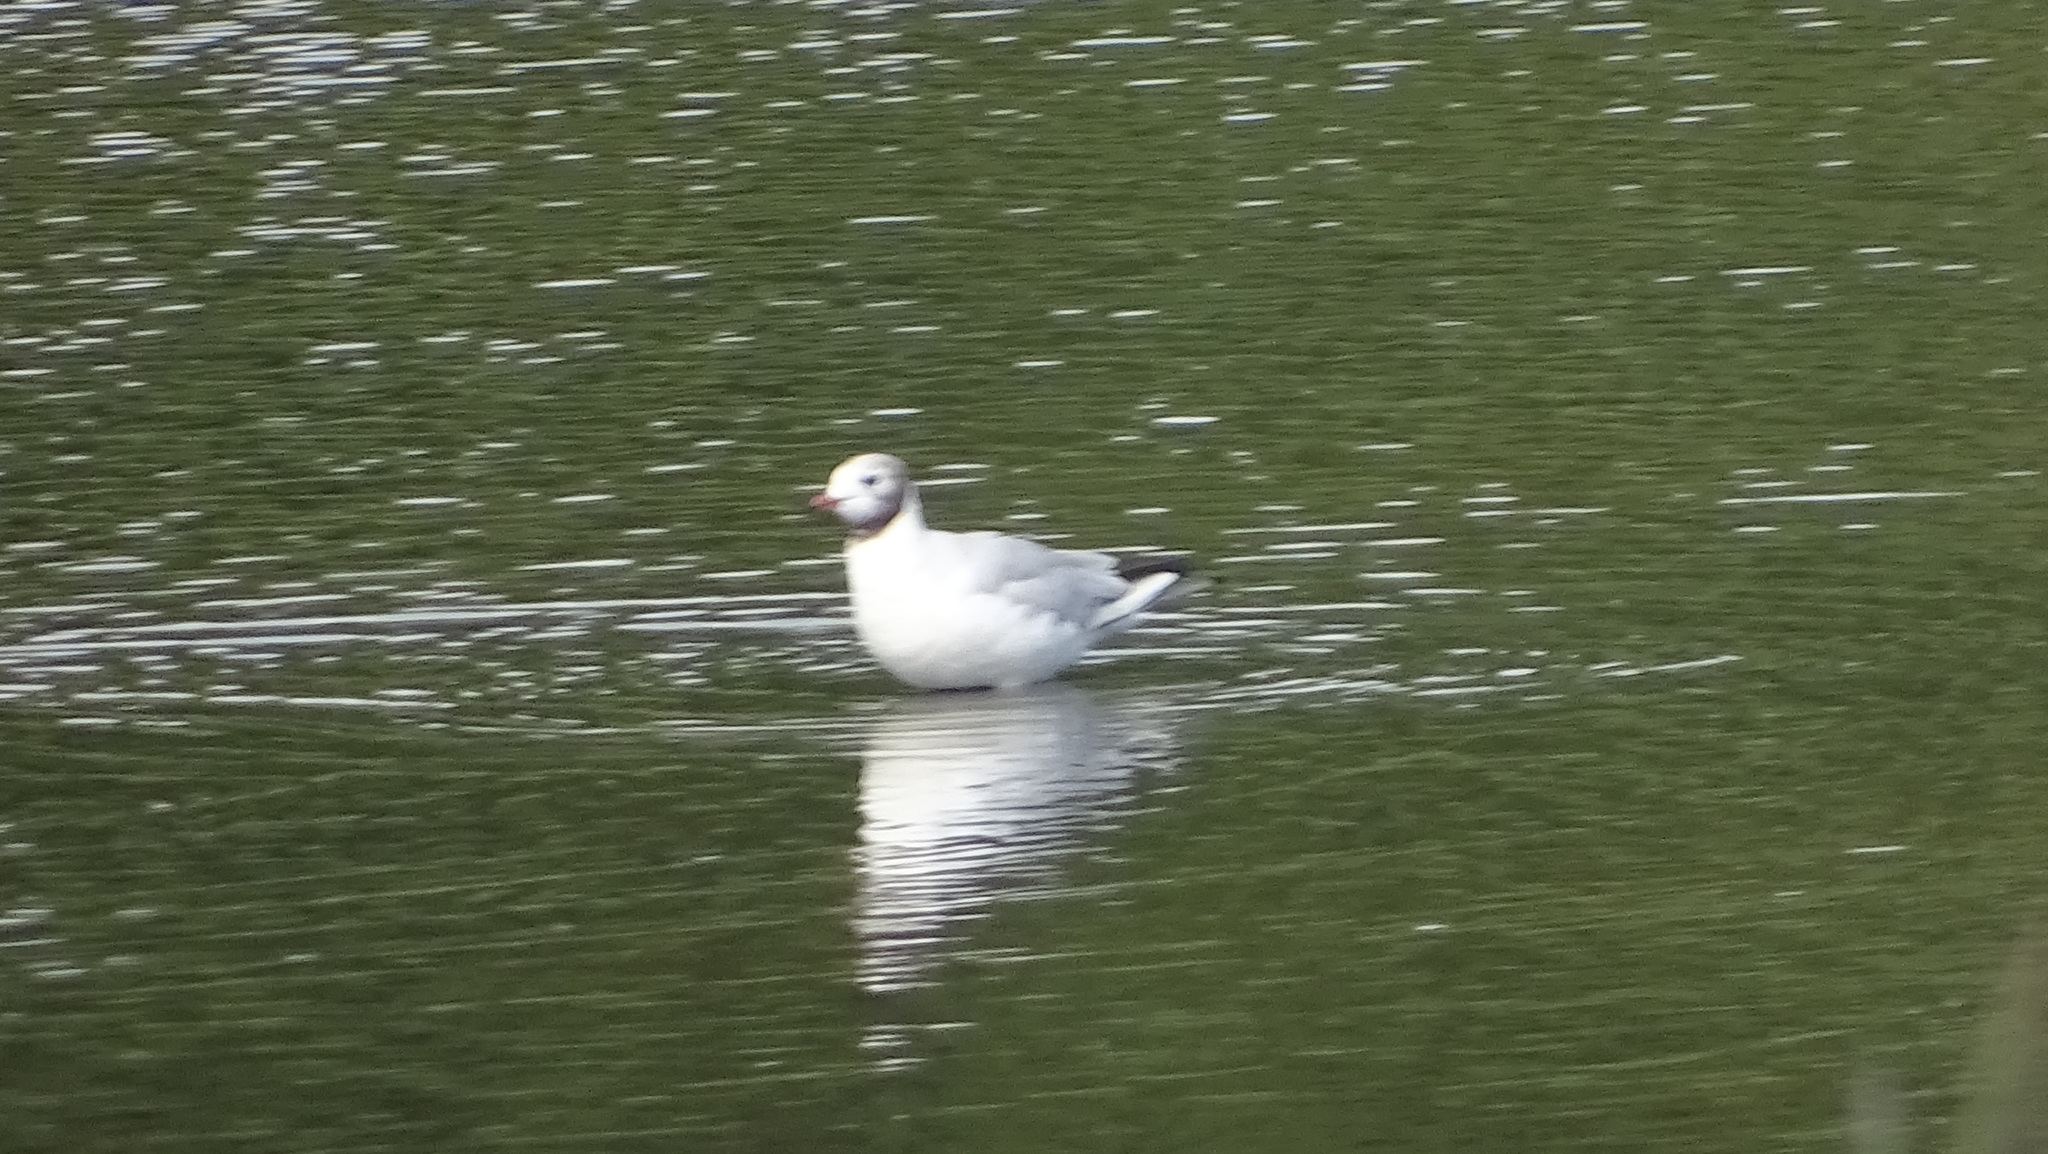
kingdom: Animalia
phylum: Chordata
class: Aves
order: Charadriiformes
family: Laridae
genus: Chroicocephalus
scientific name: Chroicocephalus ridibundus
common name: Black-headed gull
